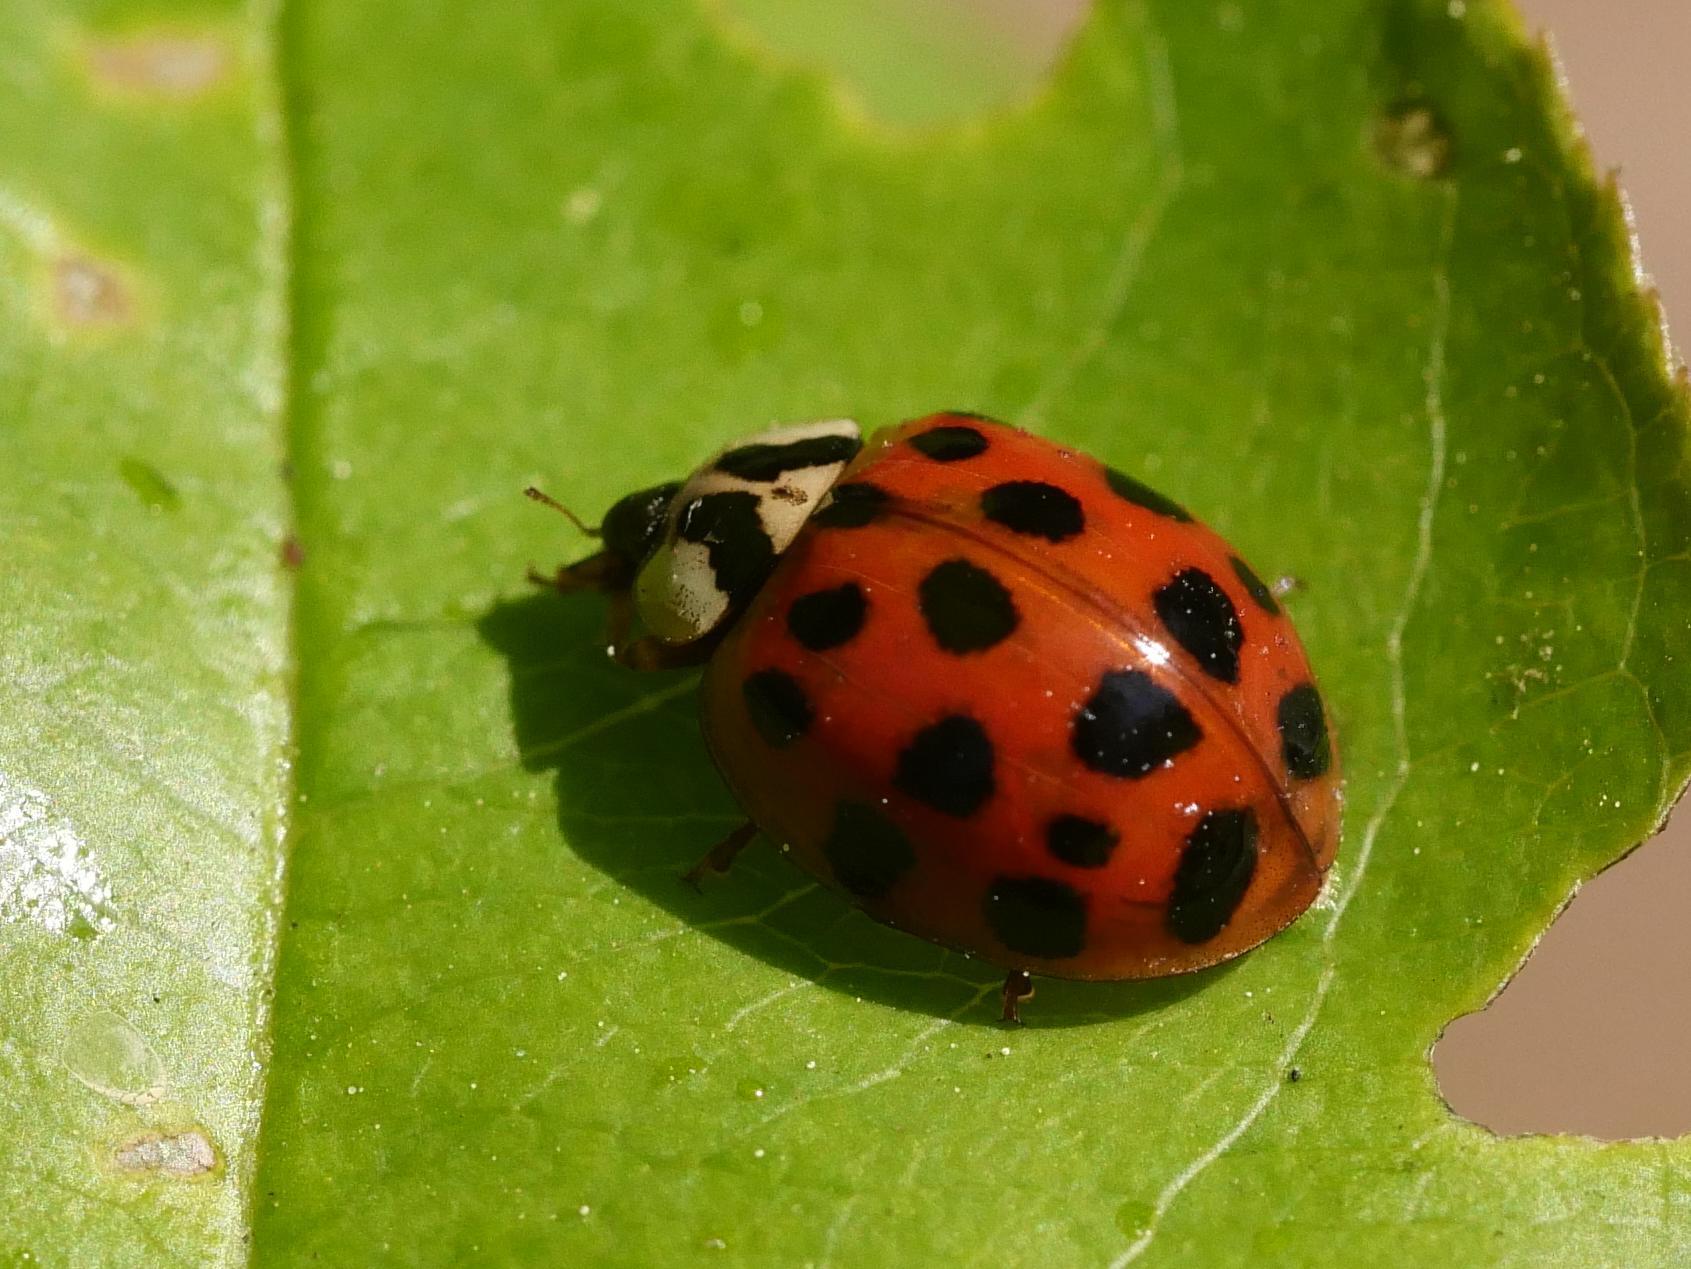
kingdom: Animalia
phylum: Arthropoda
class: Insecta
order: Coleoptera
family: Coccinellidae
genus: Harmonia
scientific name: Harmonia axyridis
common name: Harlequin ladybird
